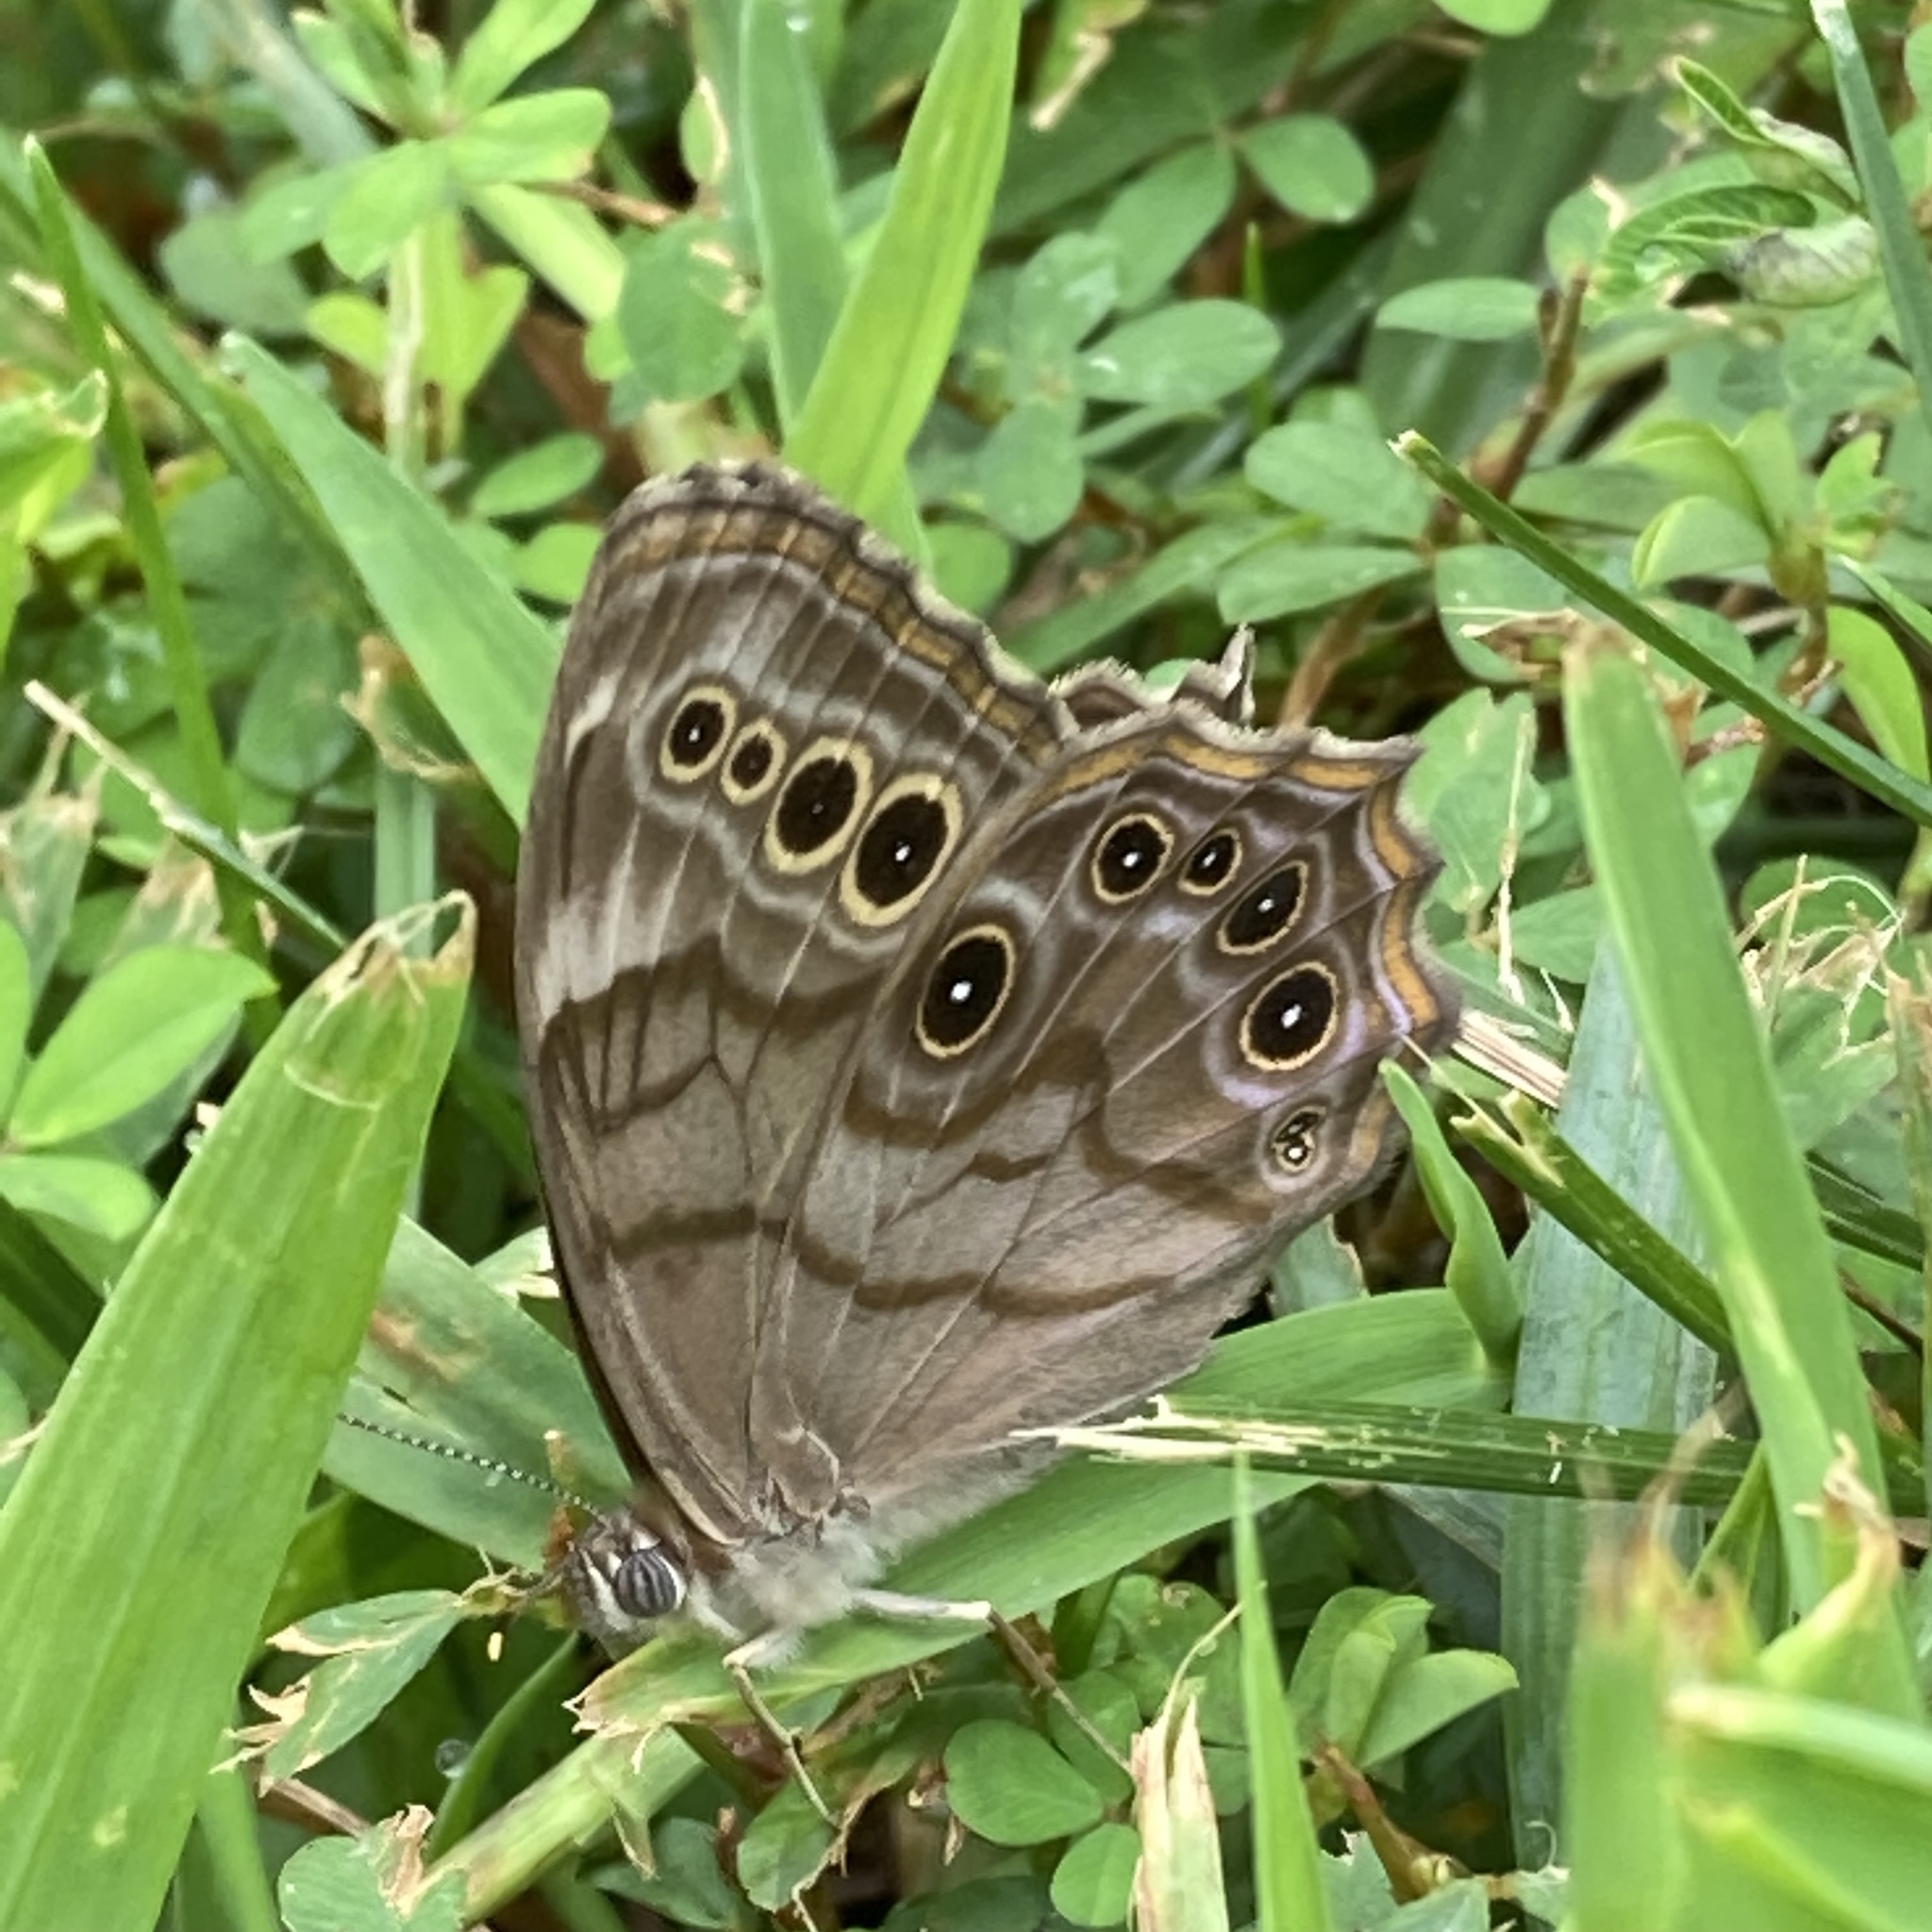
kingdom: Animalia
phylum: Arthropoda
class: Insecta
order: Lepidoptera
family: Nymphalidae
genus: Lethe
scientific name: Lethe anthedon
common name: Northern pearly-eye
